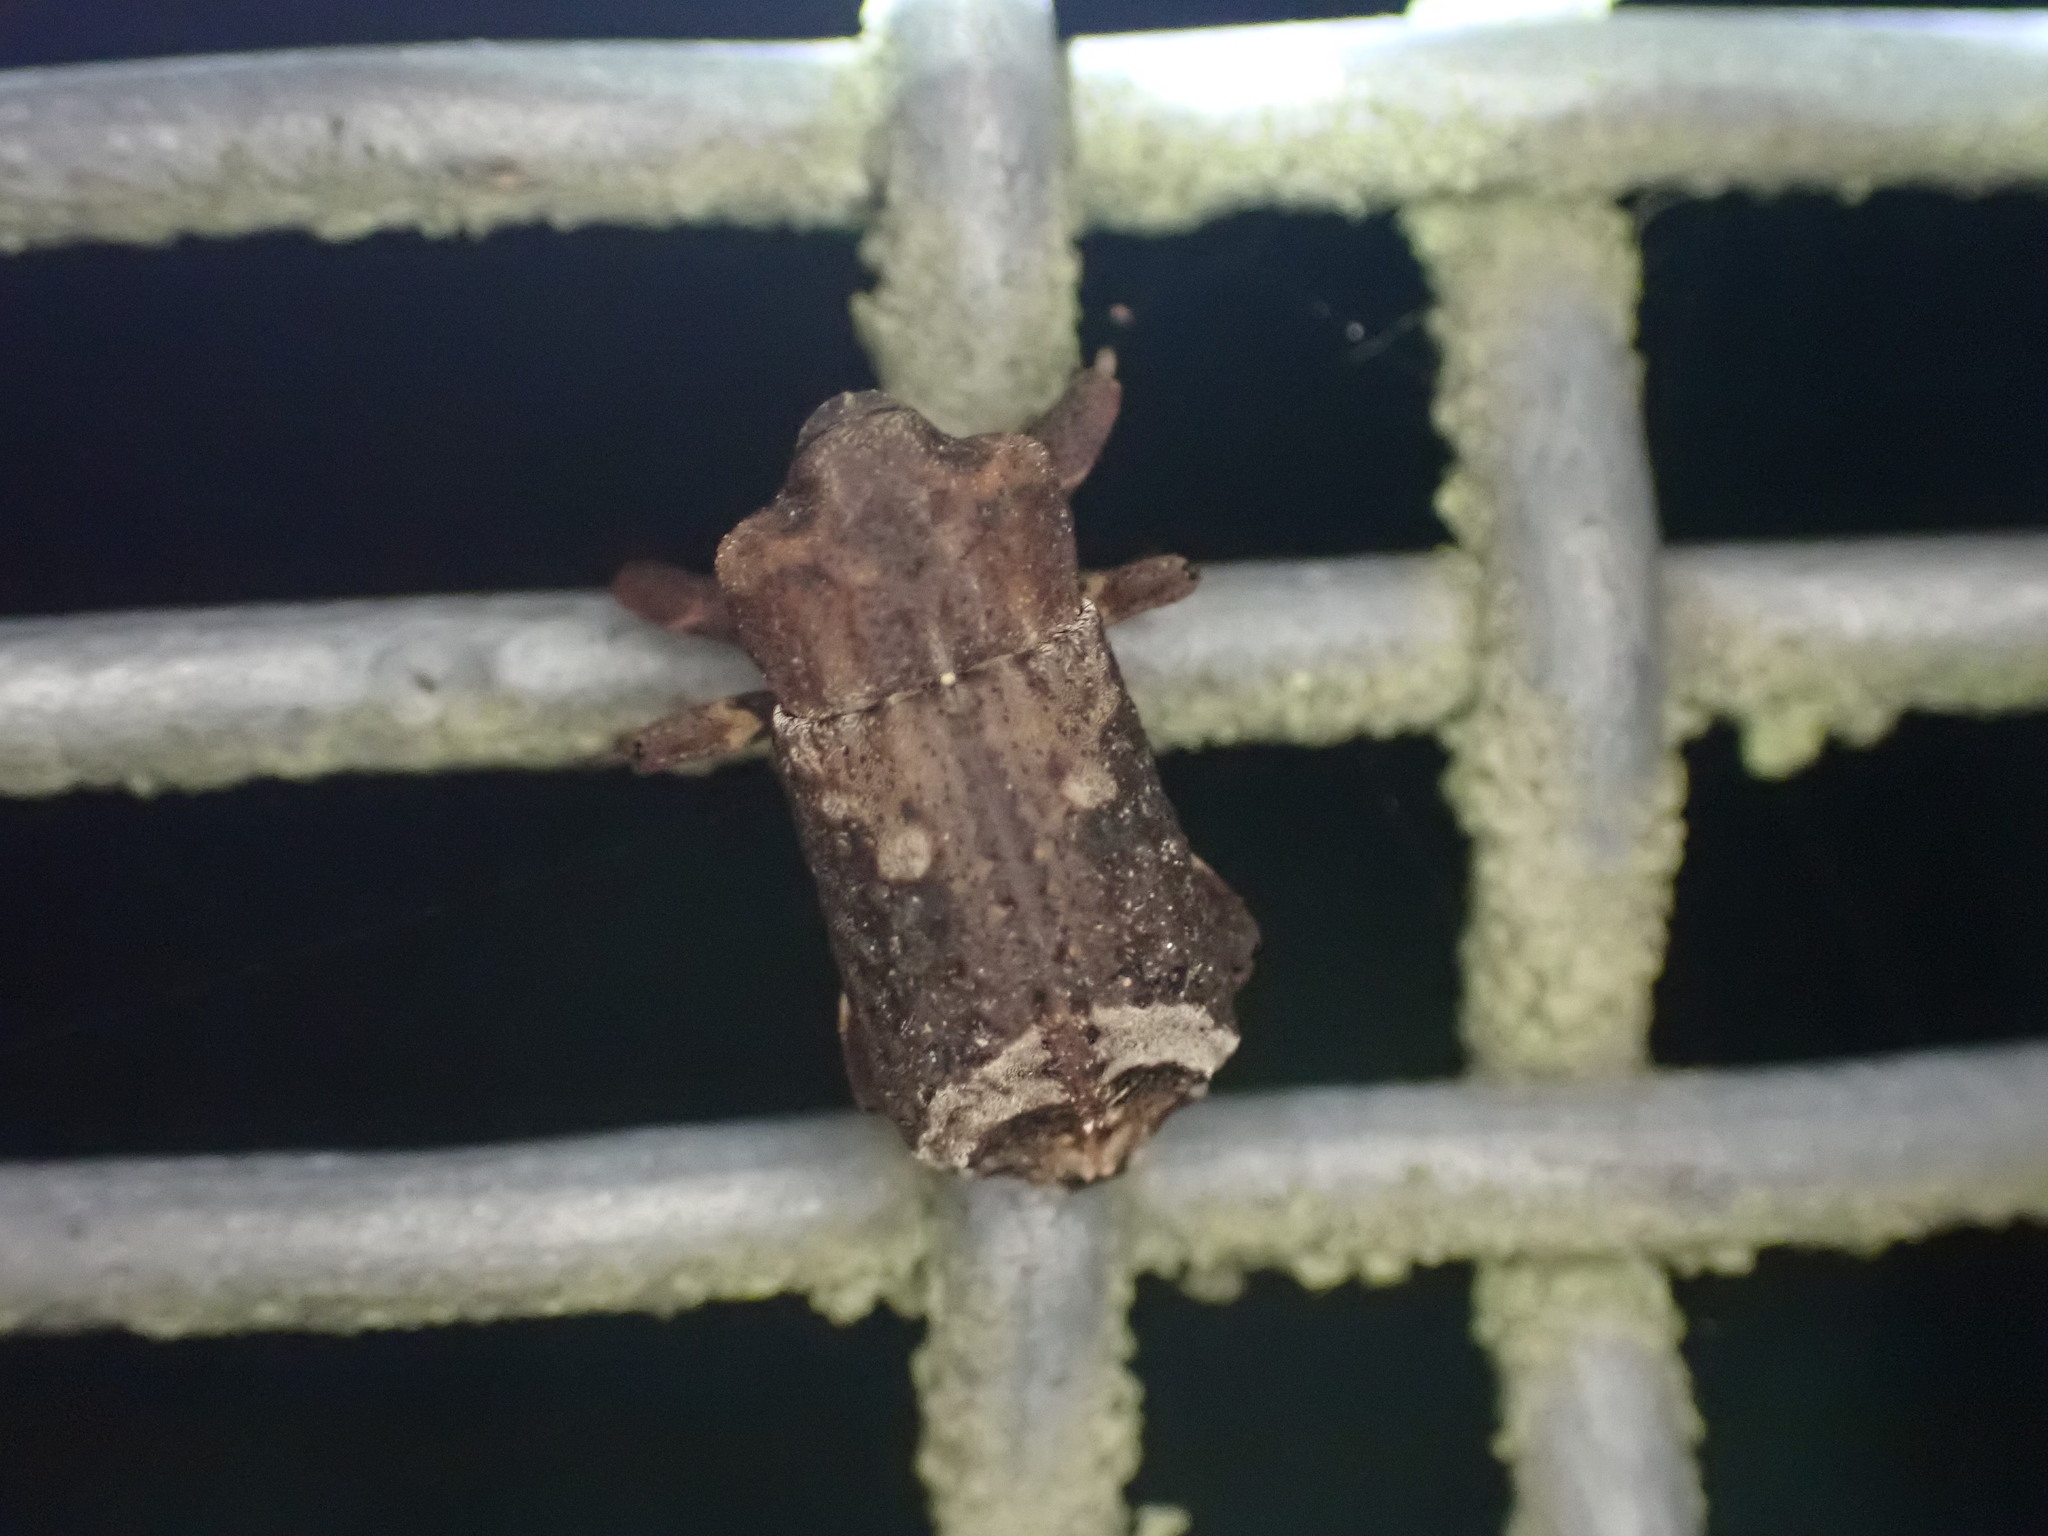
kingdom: Animalia
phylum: Arthropoda
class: Insecta
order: Coleoptera
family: Curculionidae
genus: Ectopsis
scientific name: Ectopsis ferrugalis
